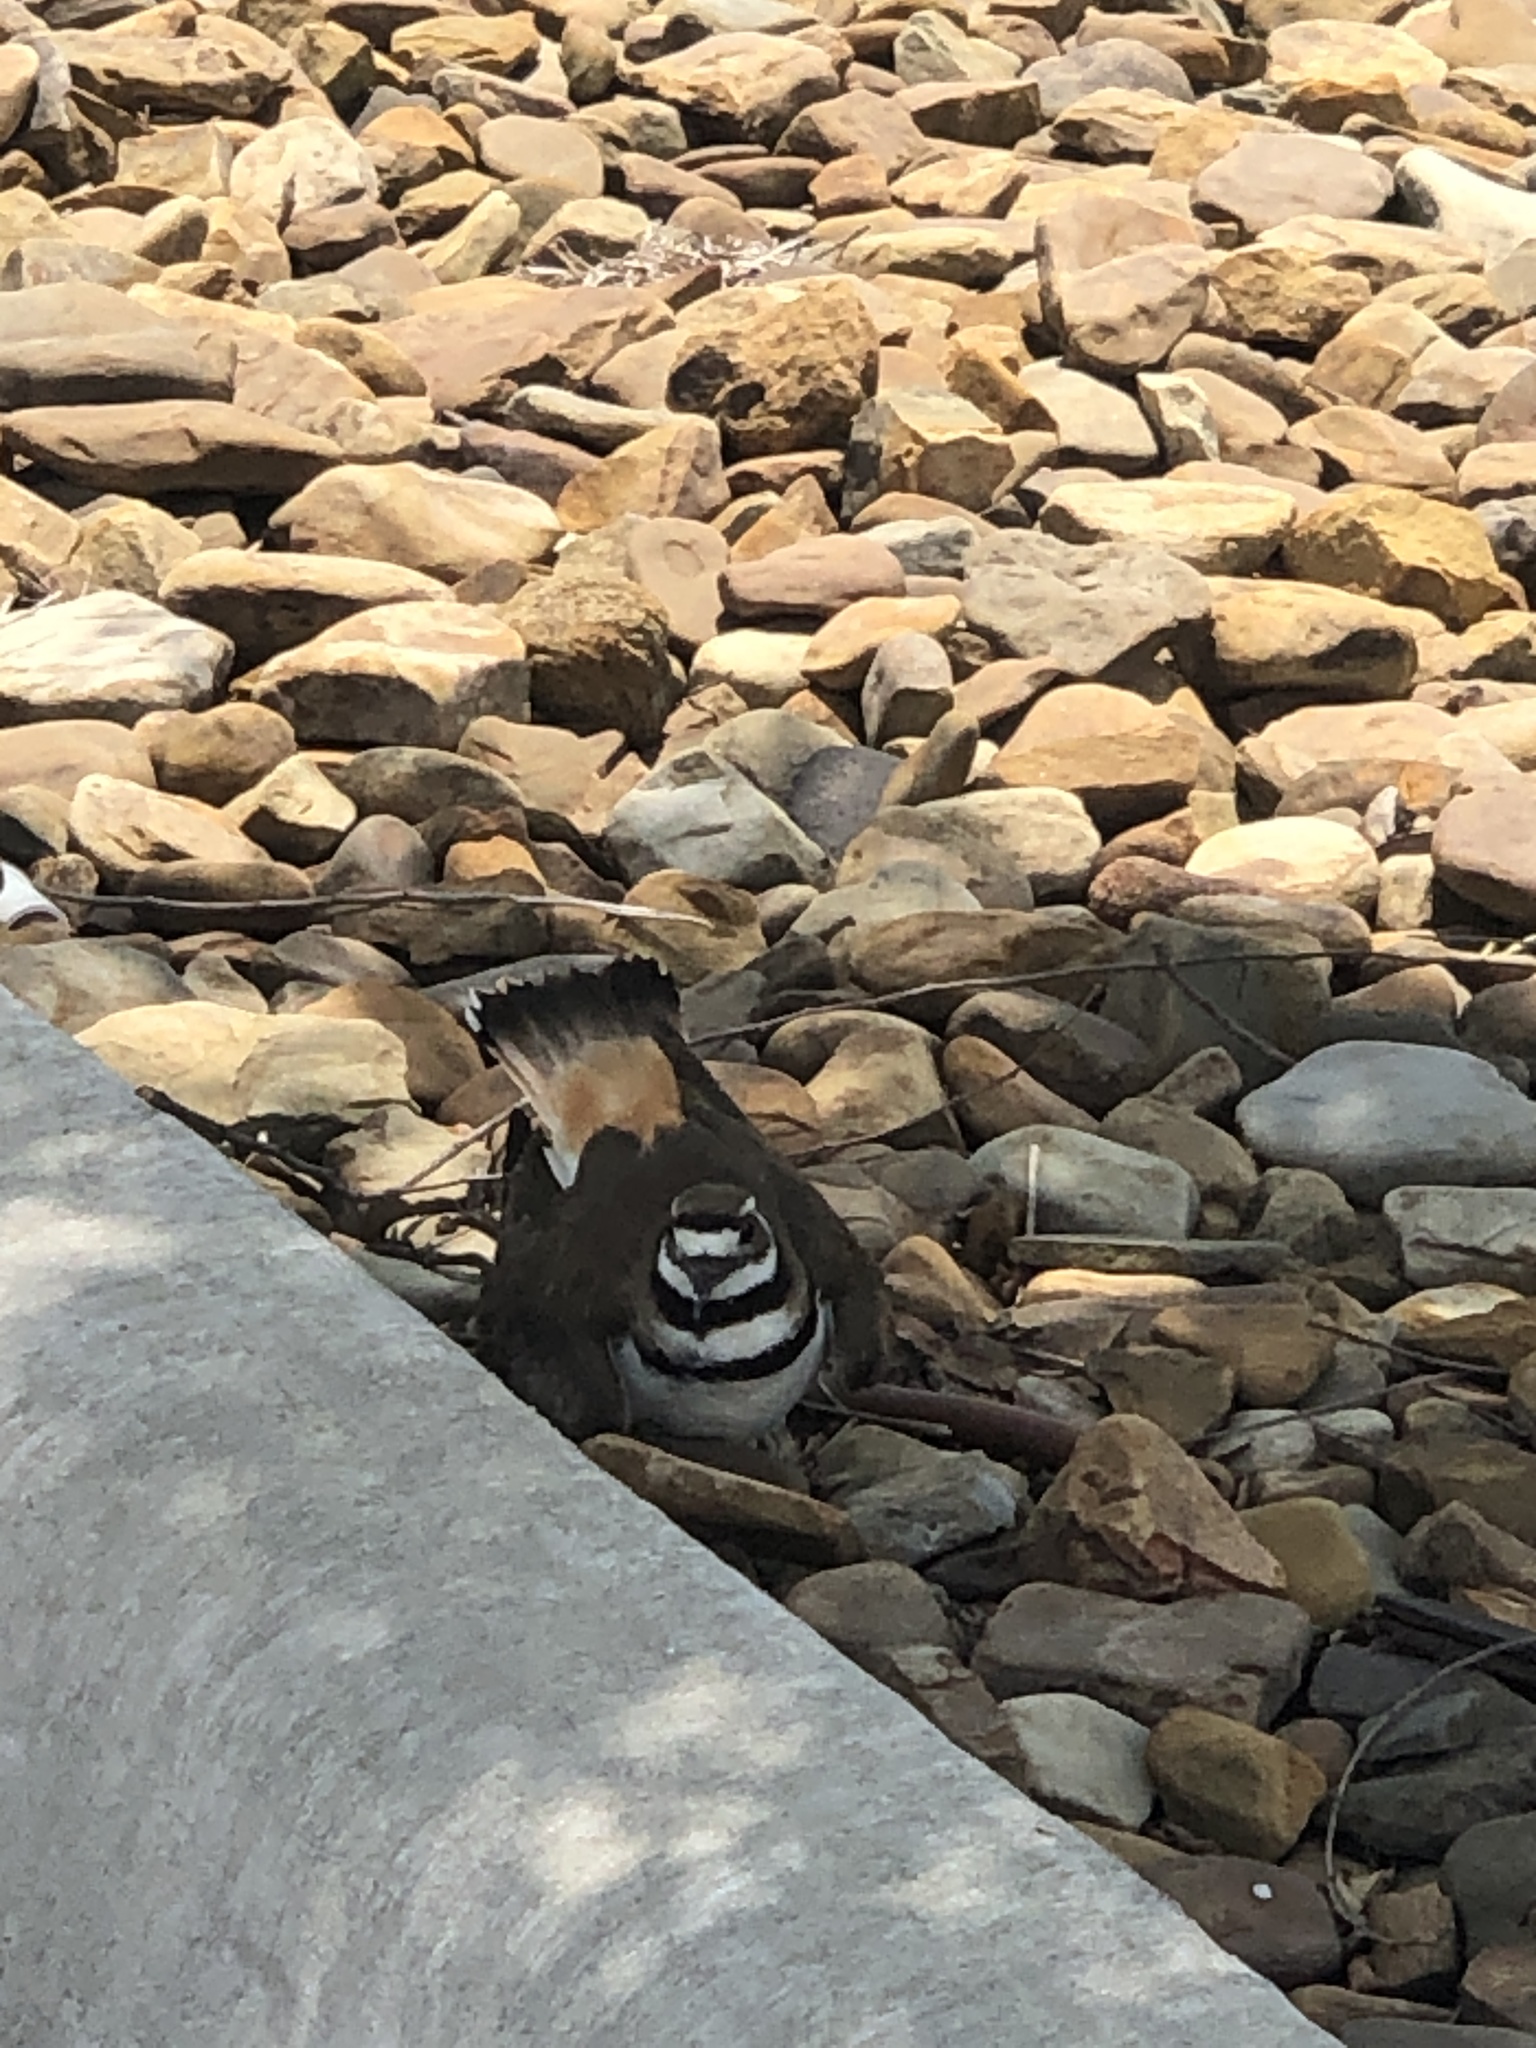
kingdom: Animalia
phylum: Chordata
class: Aves
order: Charadriiformes
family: Charadriidae
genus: Charadrius
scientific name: Charadrius vociferus
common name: Killdeer
